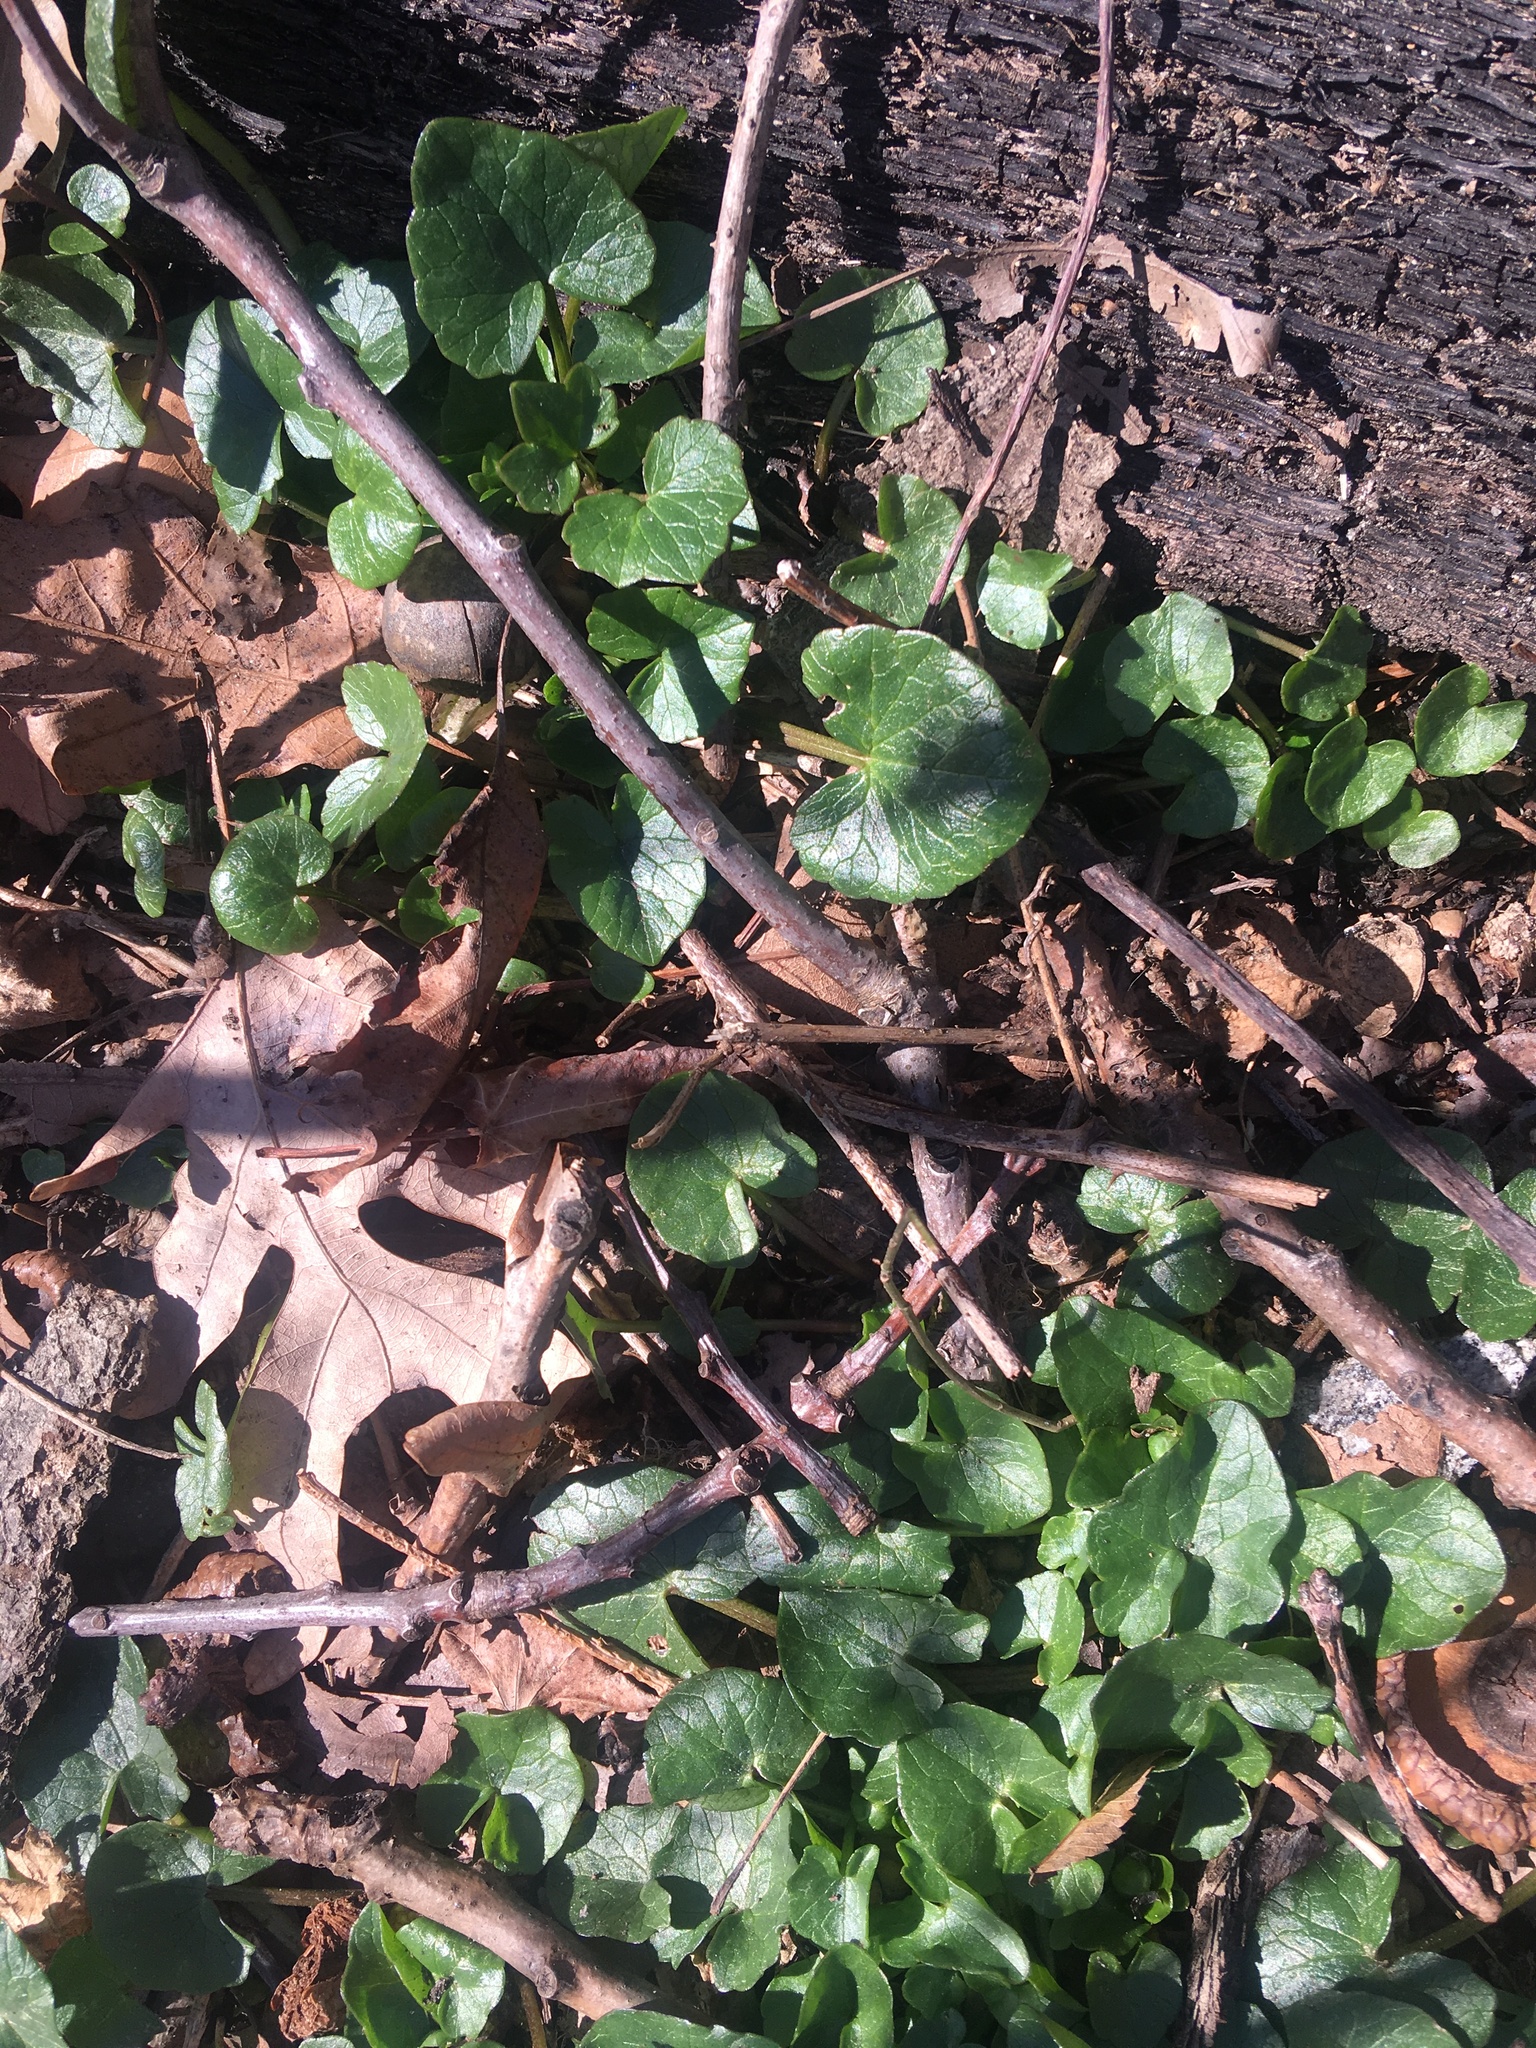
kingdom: Plantae
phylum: Tracheophyta
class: Magnoliopsida
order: Ranunculales
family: Ranunculaceae
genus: Ficaria
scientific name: Ficaria verna
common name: Lesser celandine
